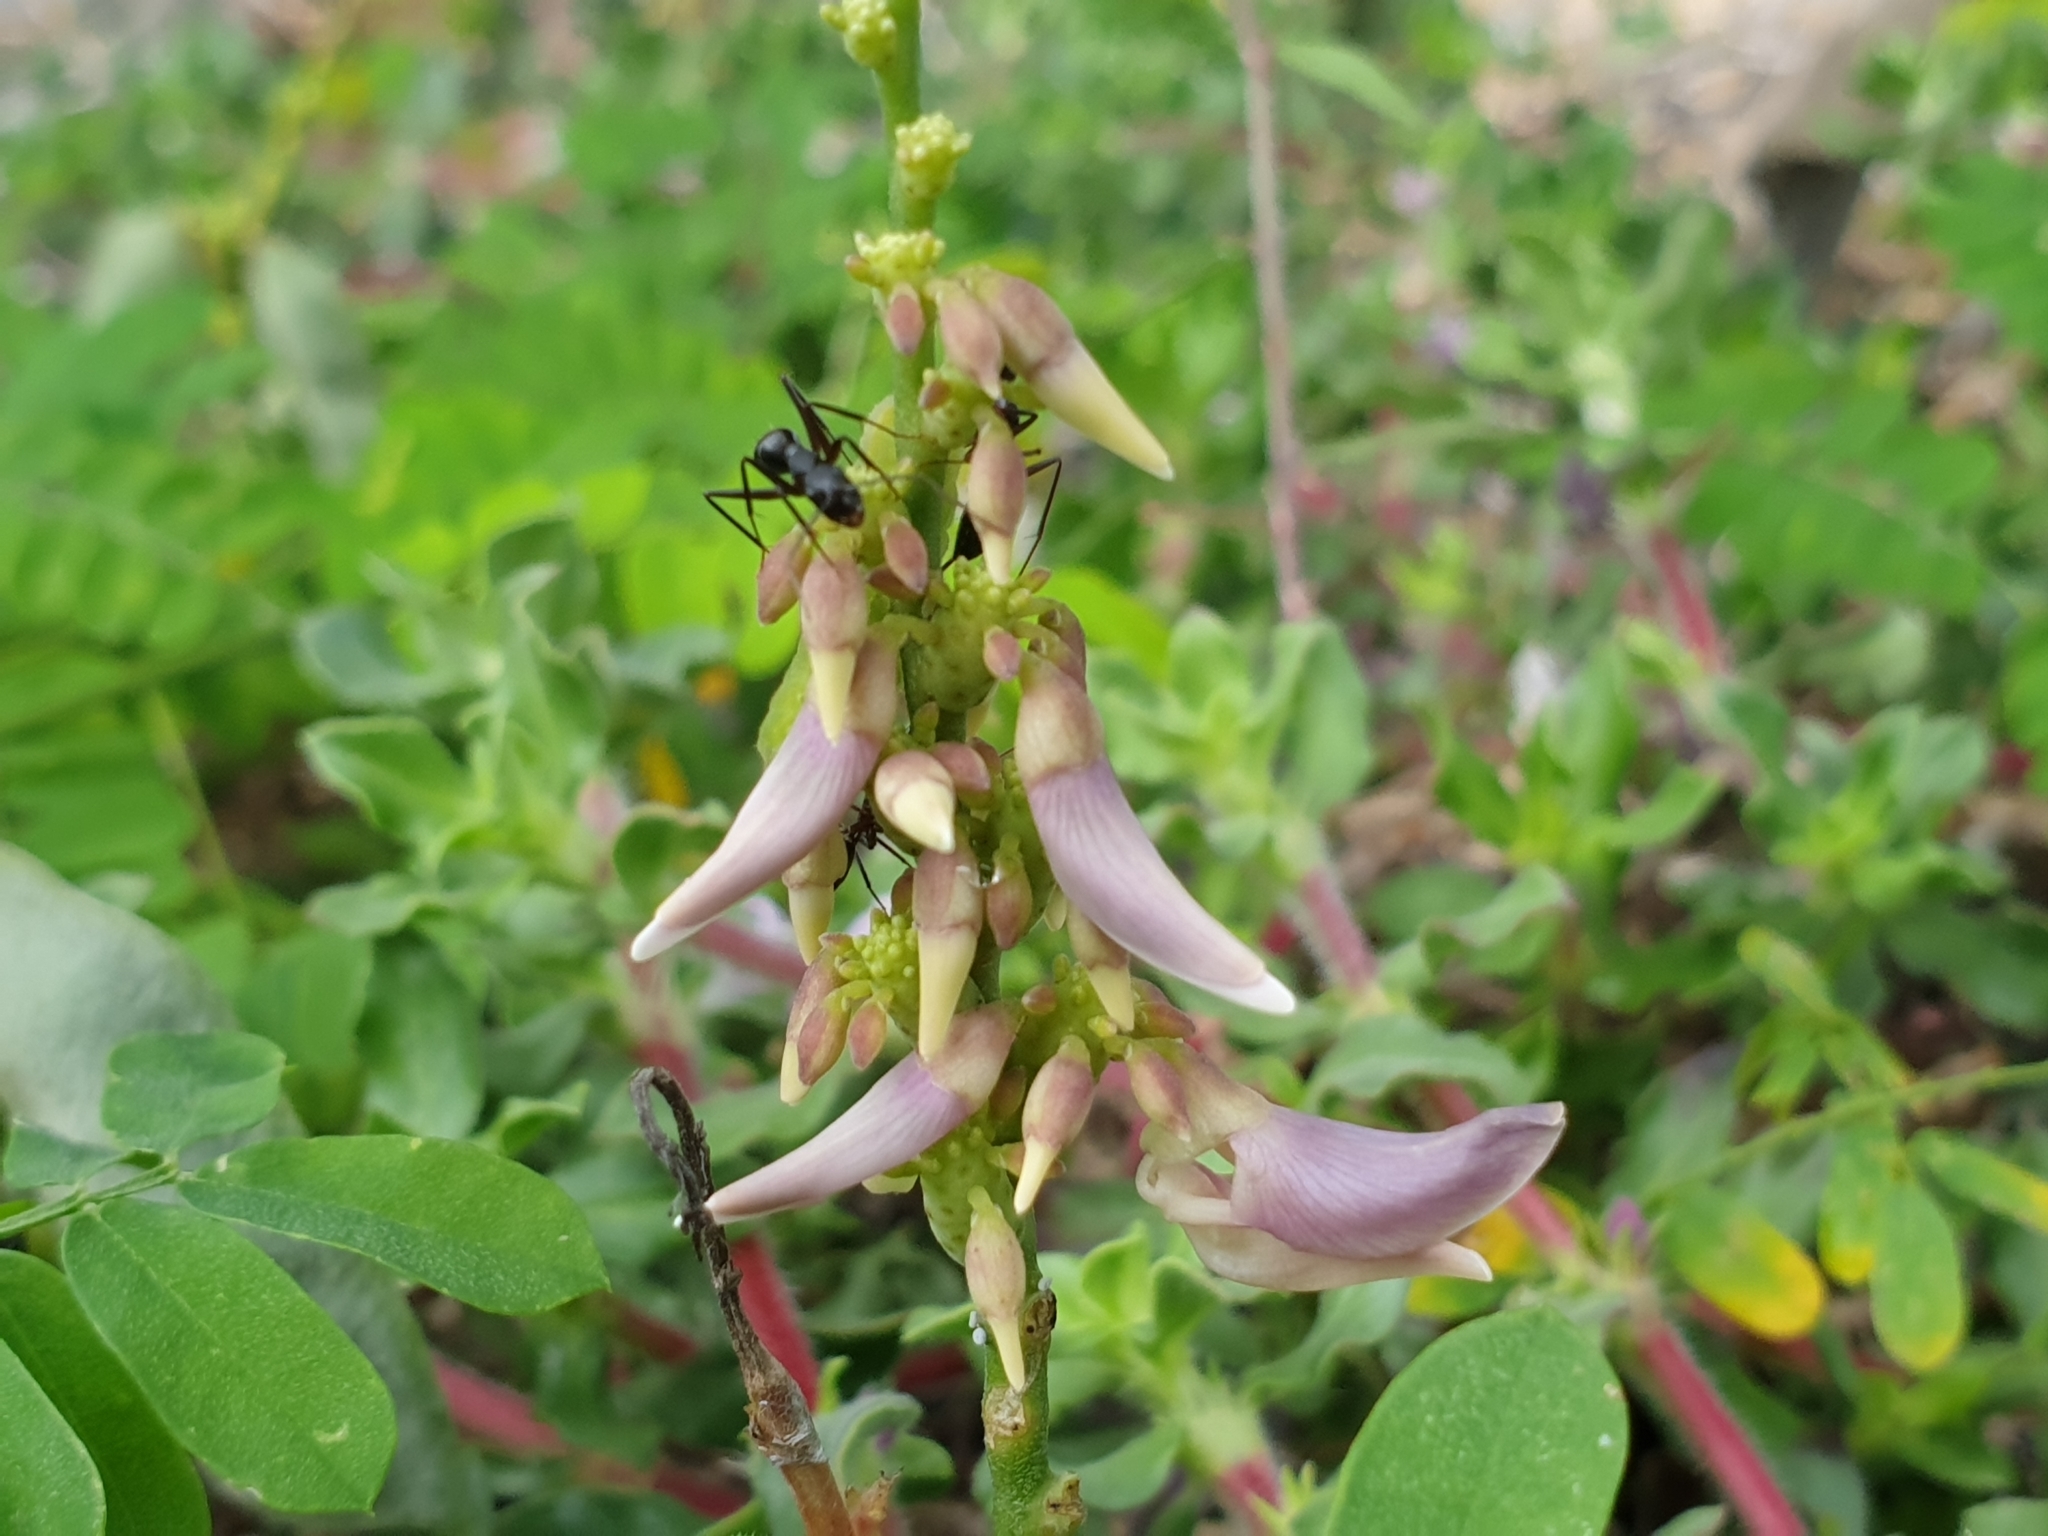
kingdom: Plantae
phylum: Tracheophyta
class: Magnoliopsida
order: Fabales
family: Fabaceae
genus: Abrus
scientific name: Abrus precatorius
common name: Rosarypea
